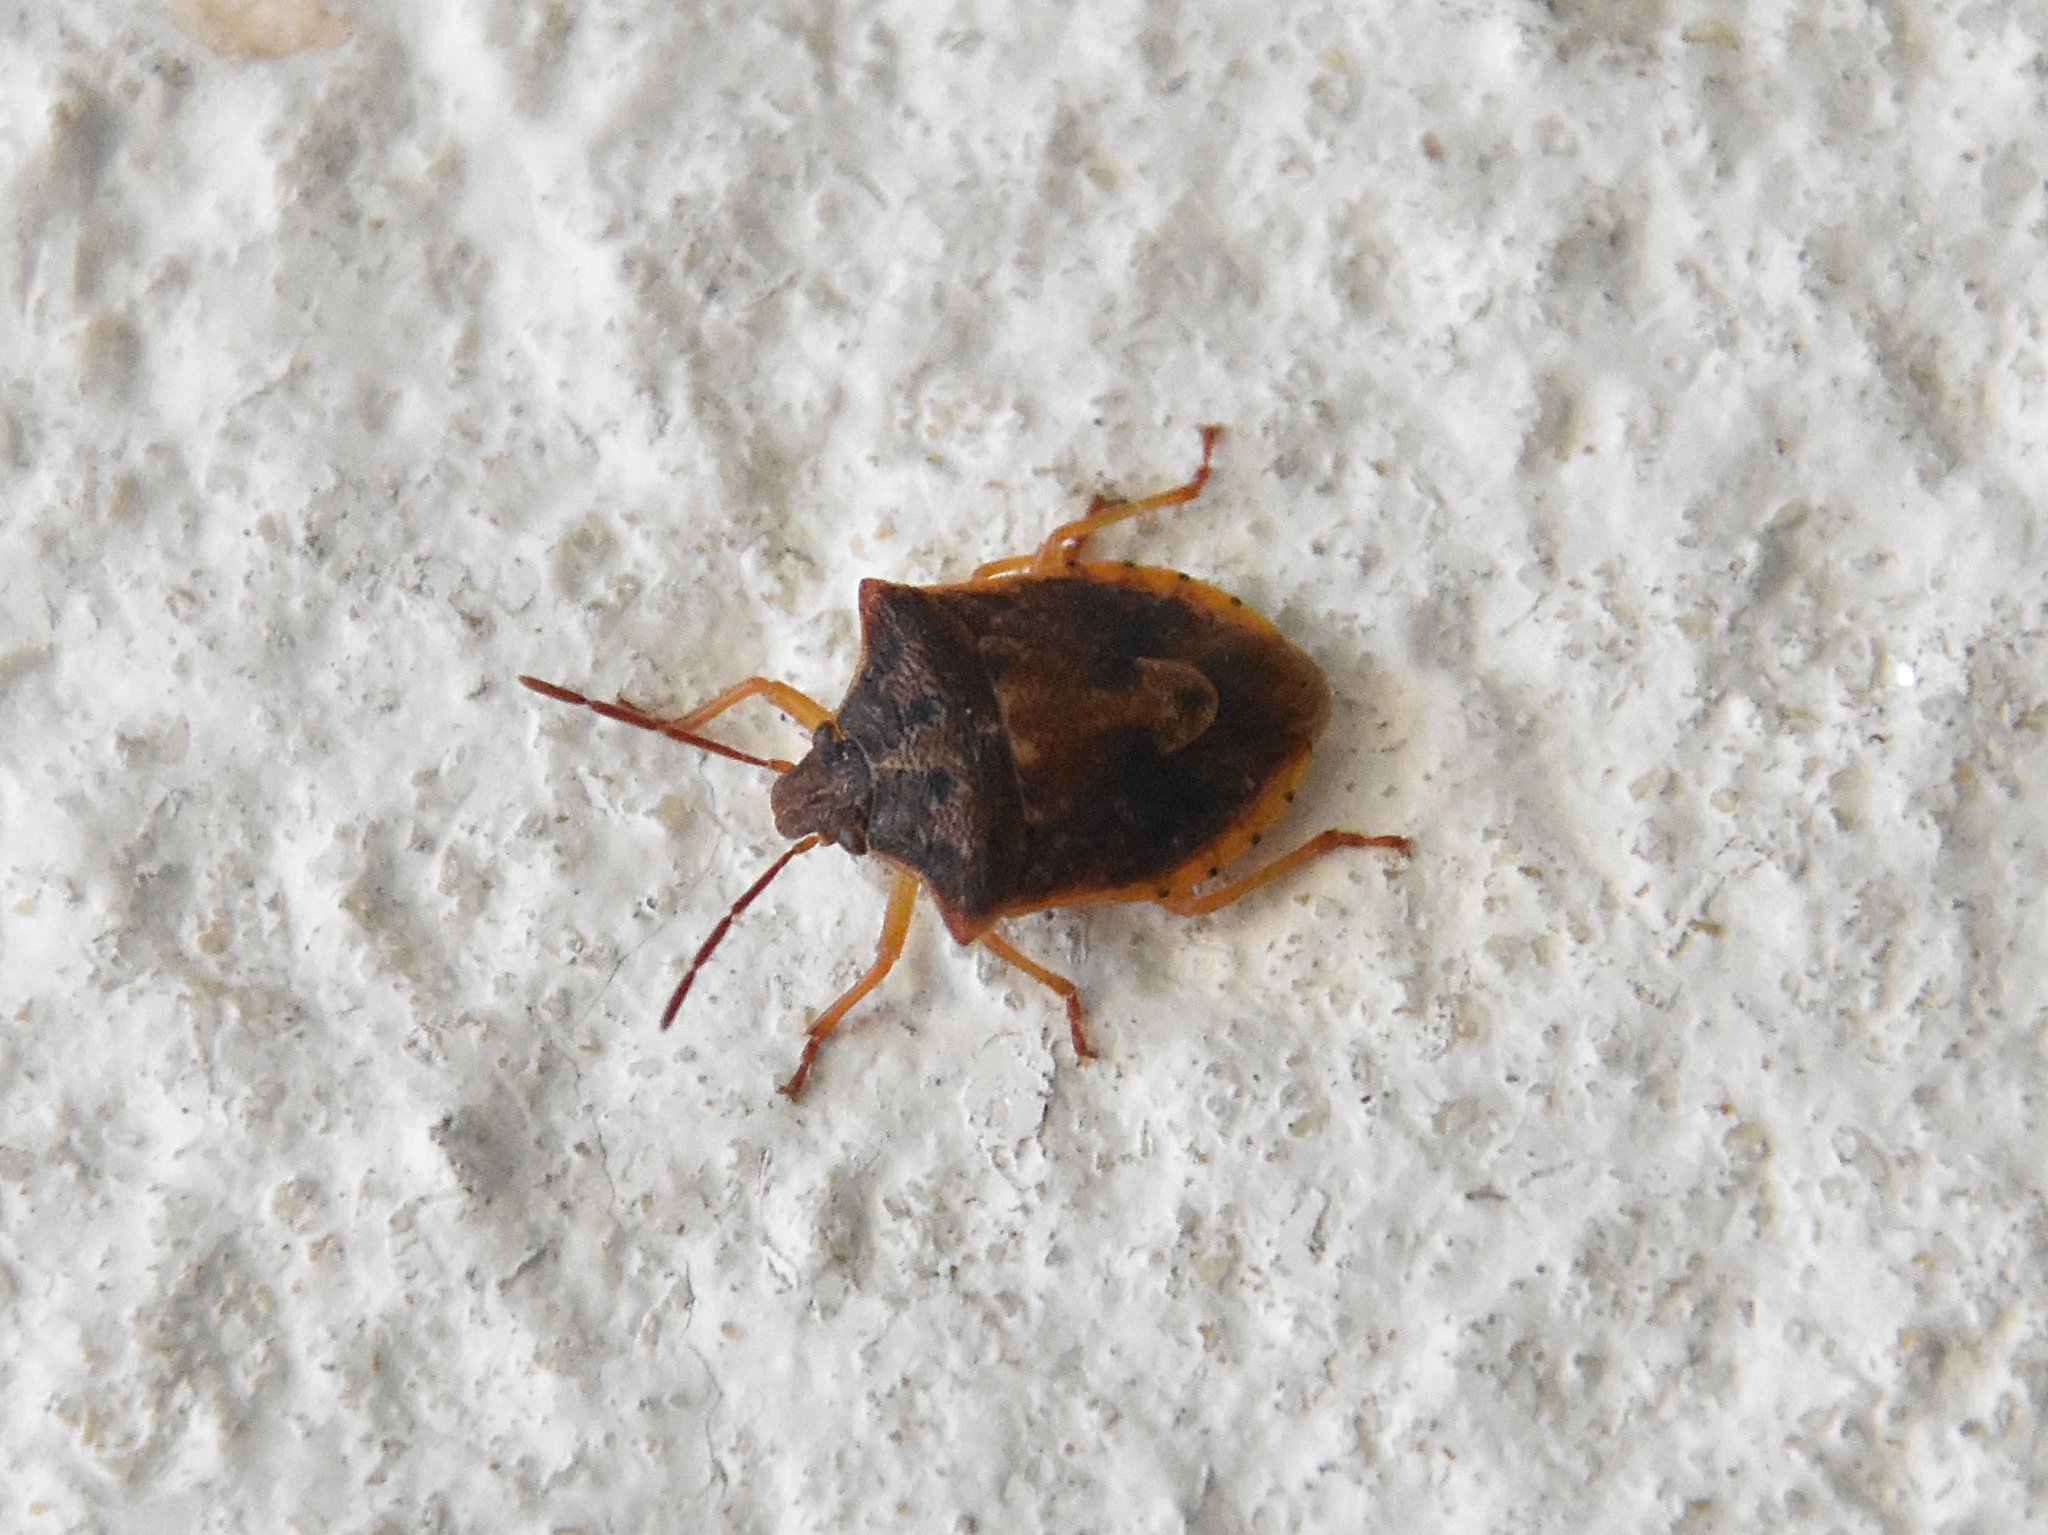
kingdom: Animalia
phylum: Arthropoda
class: Insecta
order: Hemiptera
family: Pentatomidae
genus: Dendrocoris
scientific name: Dendrocoris humeralis
